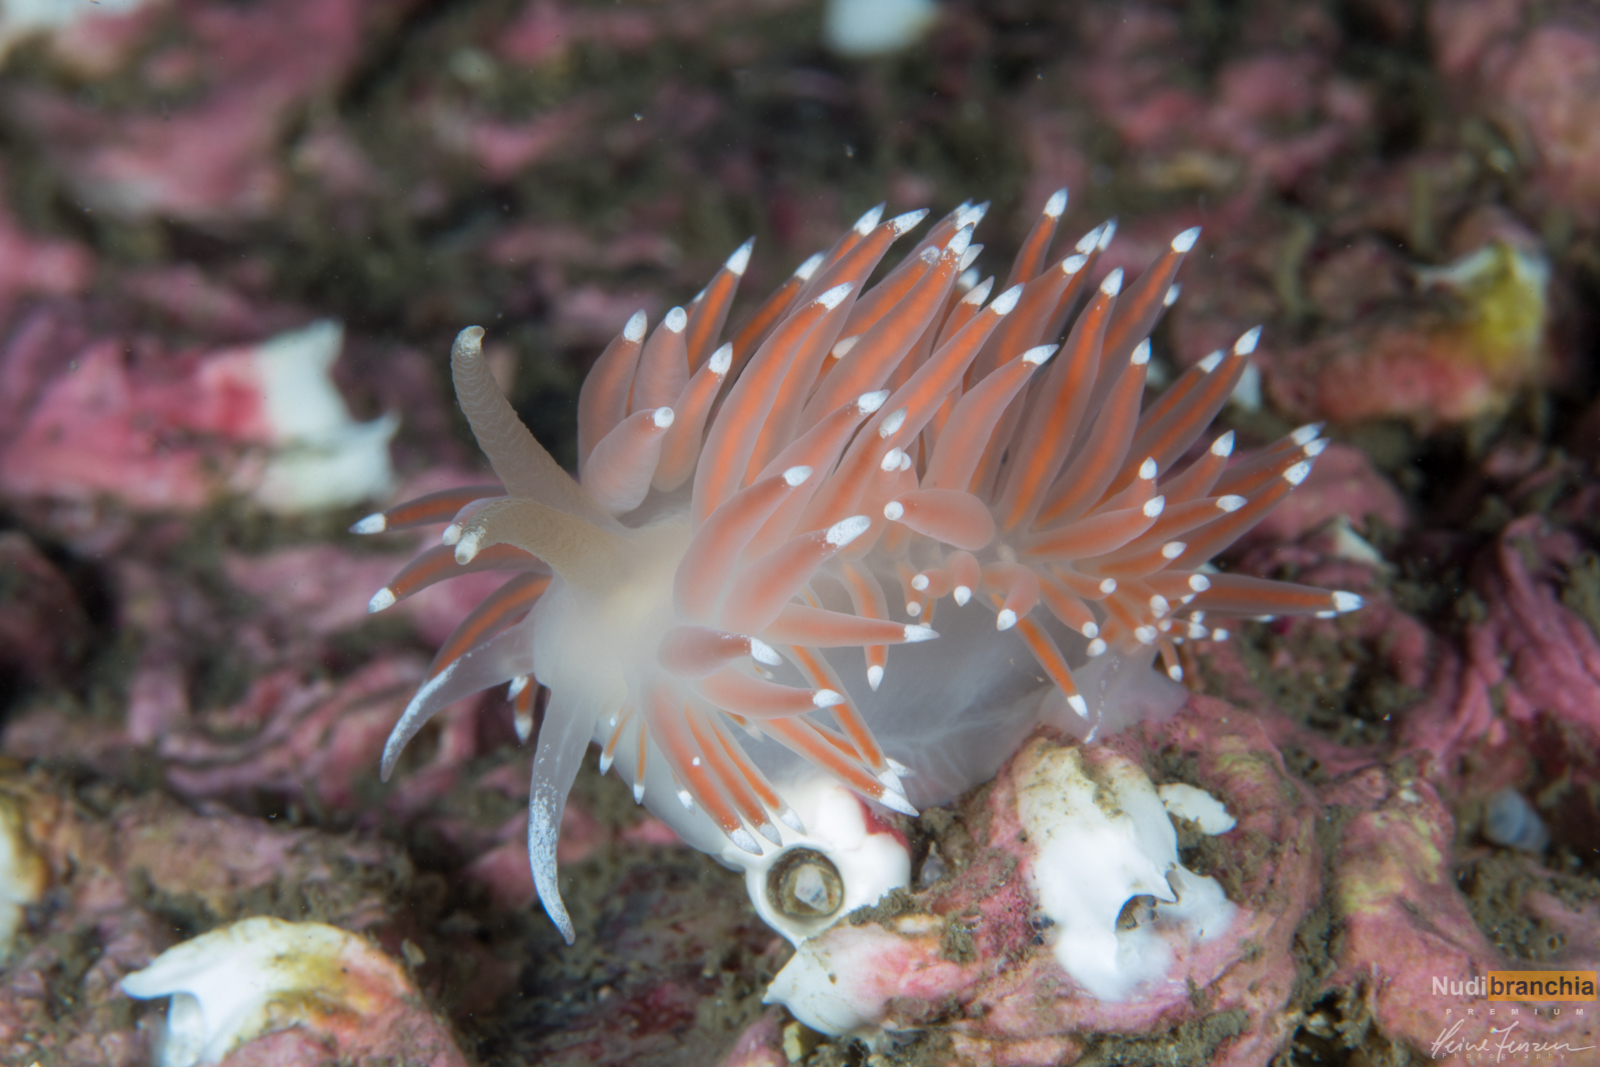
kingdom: Animalia
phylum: Mollusca
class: Gastropoda
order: Nudibranchia
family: Coryphellidae
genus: Coryphella
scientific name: Coryphella browni
